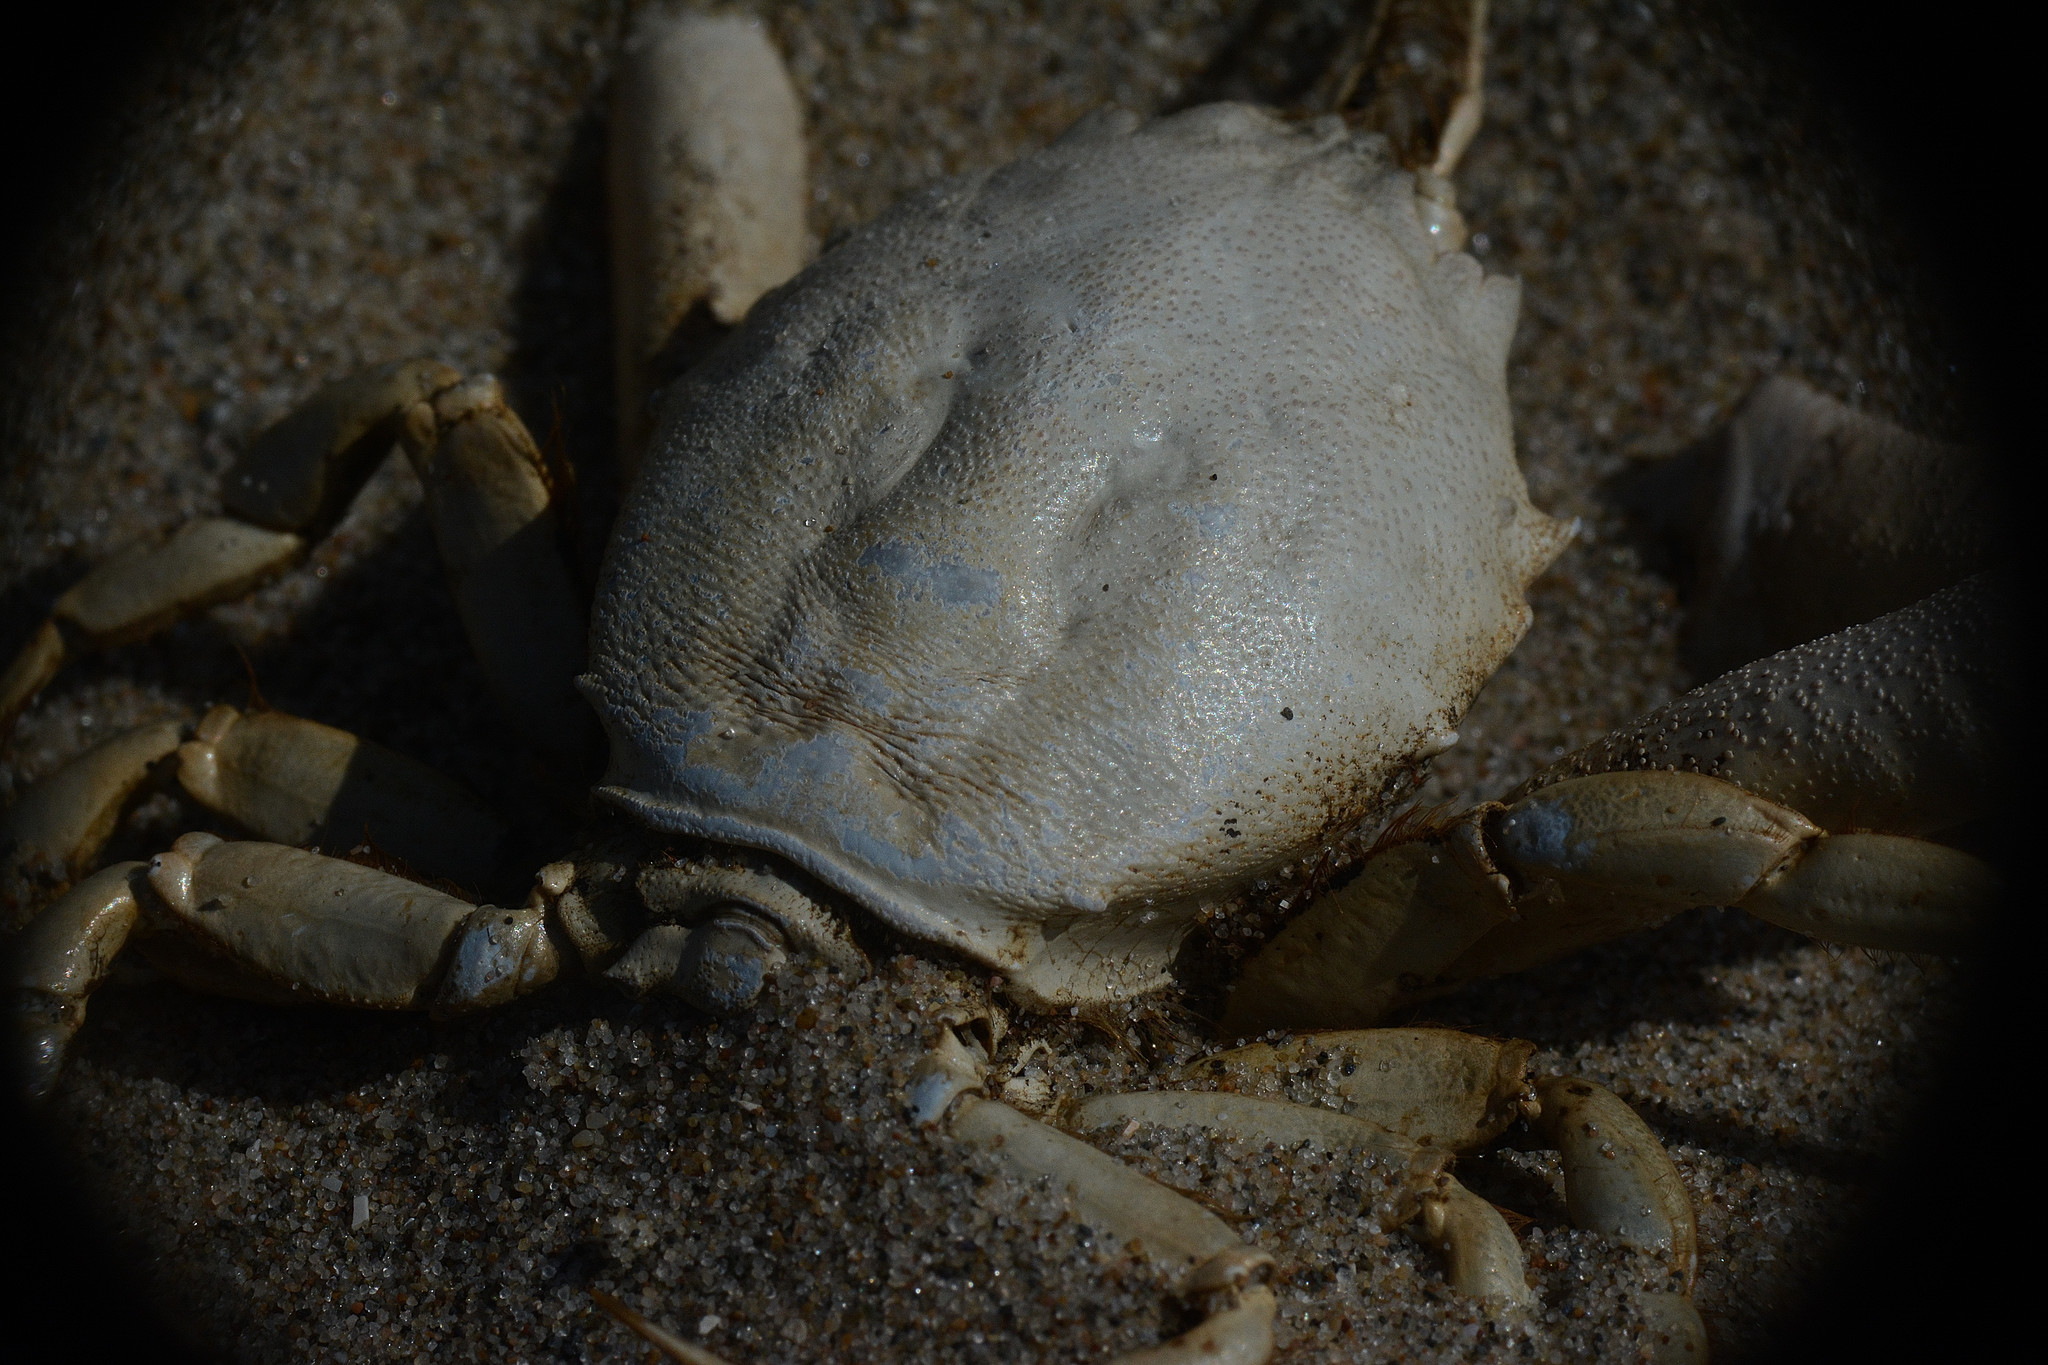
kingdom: Animalia
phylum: Arthropoda
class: Malacostraca
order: Decapoda
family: Corystidae
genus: Corystes
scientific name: Corystes cassivelaunus
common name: Masked crab
